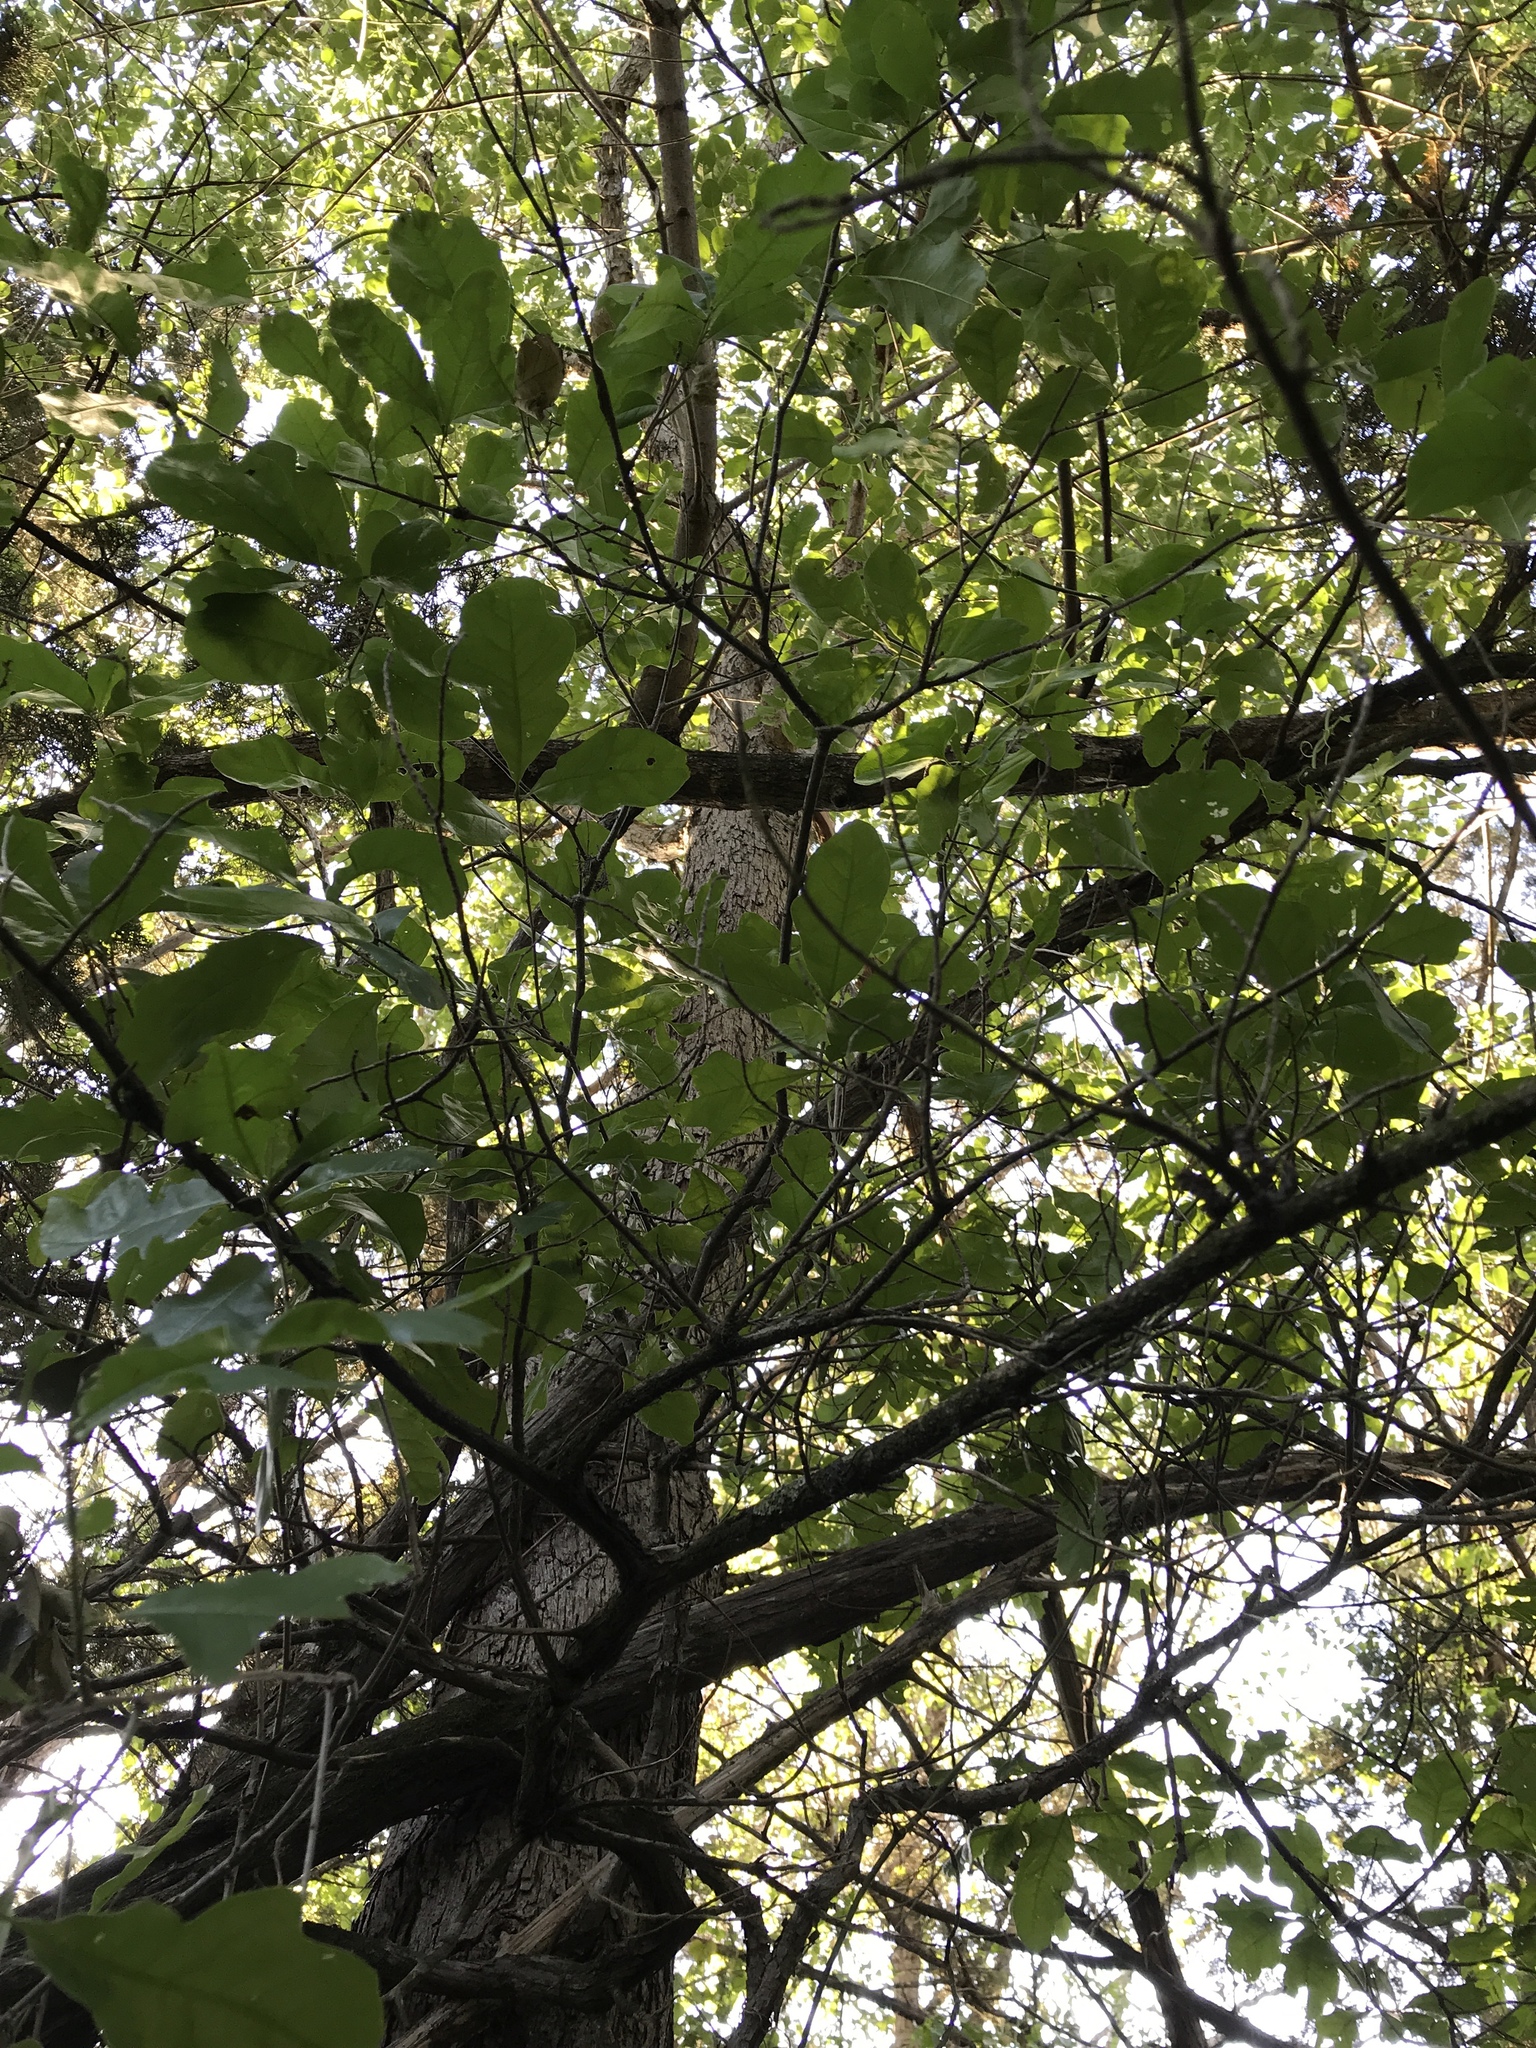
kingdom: Plantae
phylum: Tracheophyta
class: Magnoliopsida
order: Fagales
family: Fagaceae
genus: Quercus
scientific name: Quercus sinuata
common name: Durand oak
